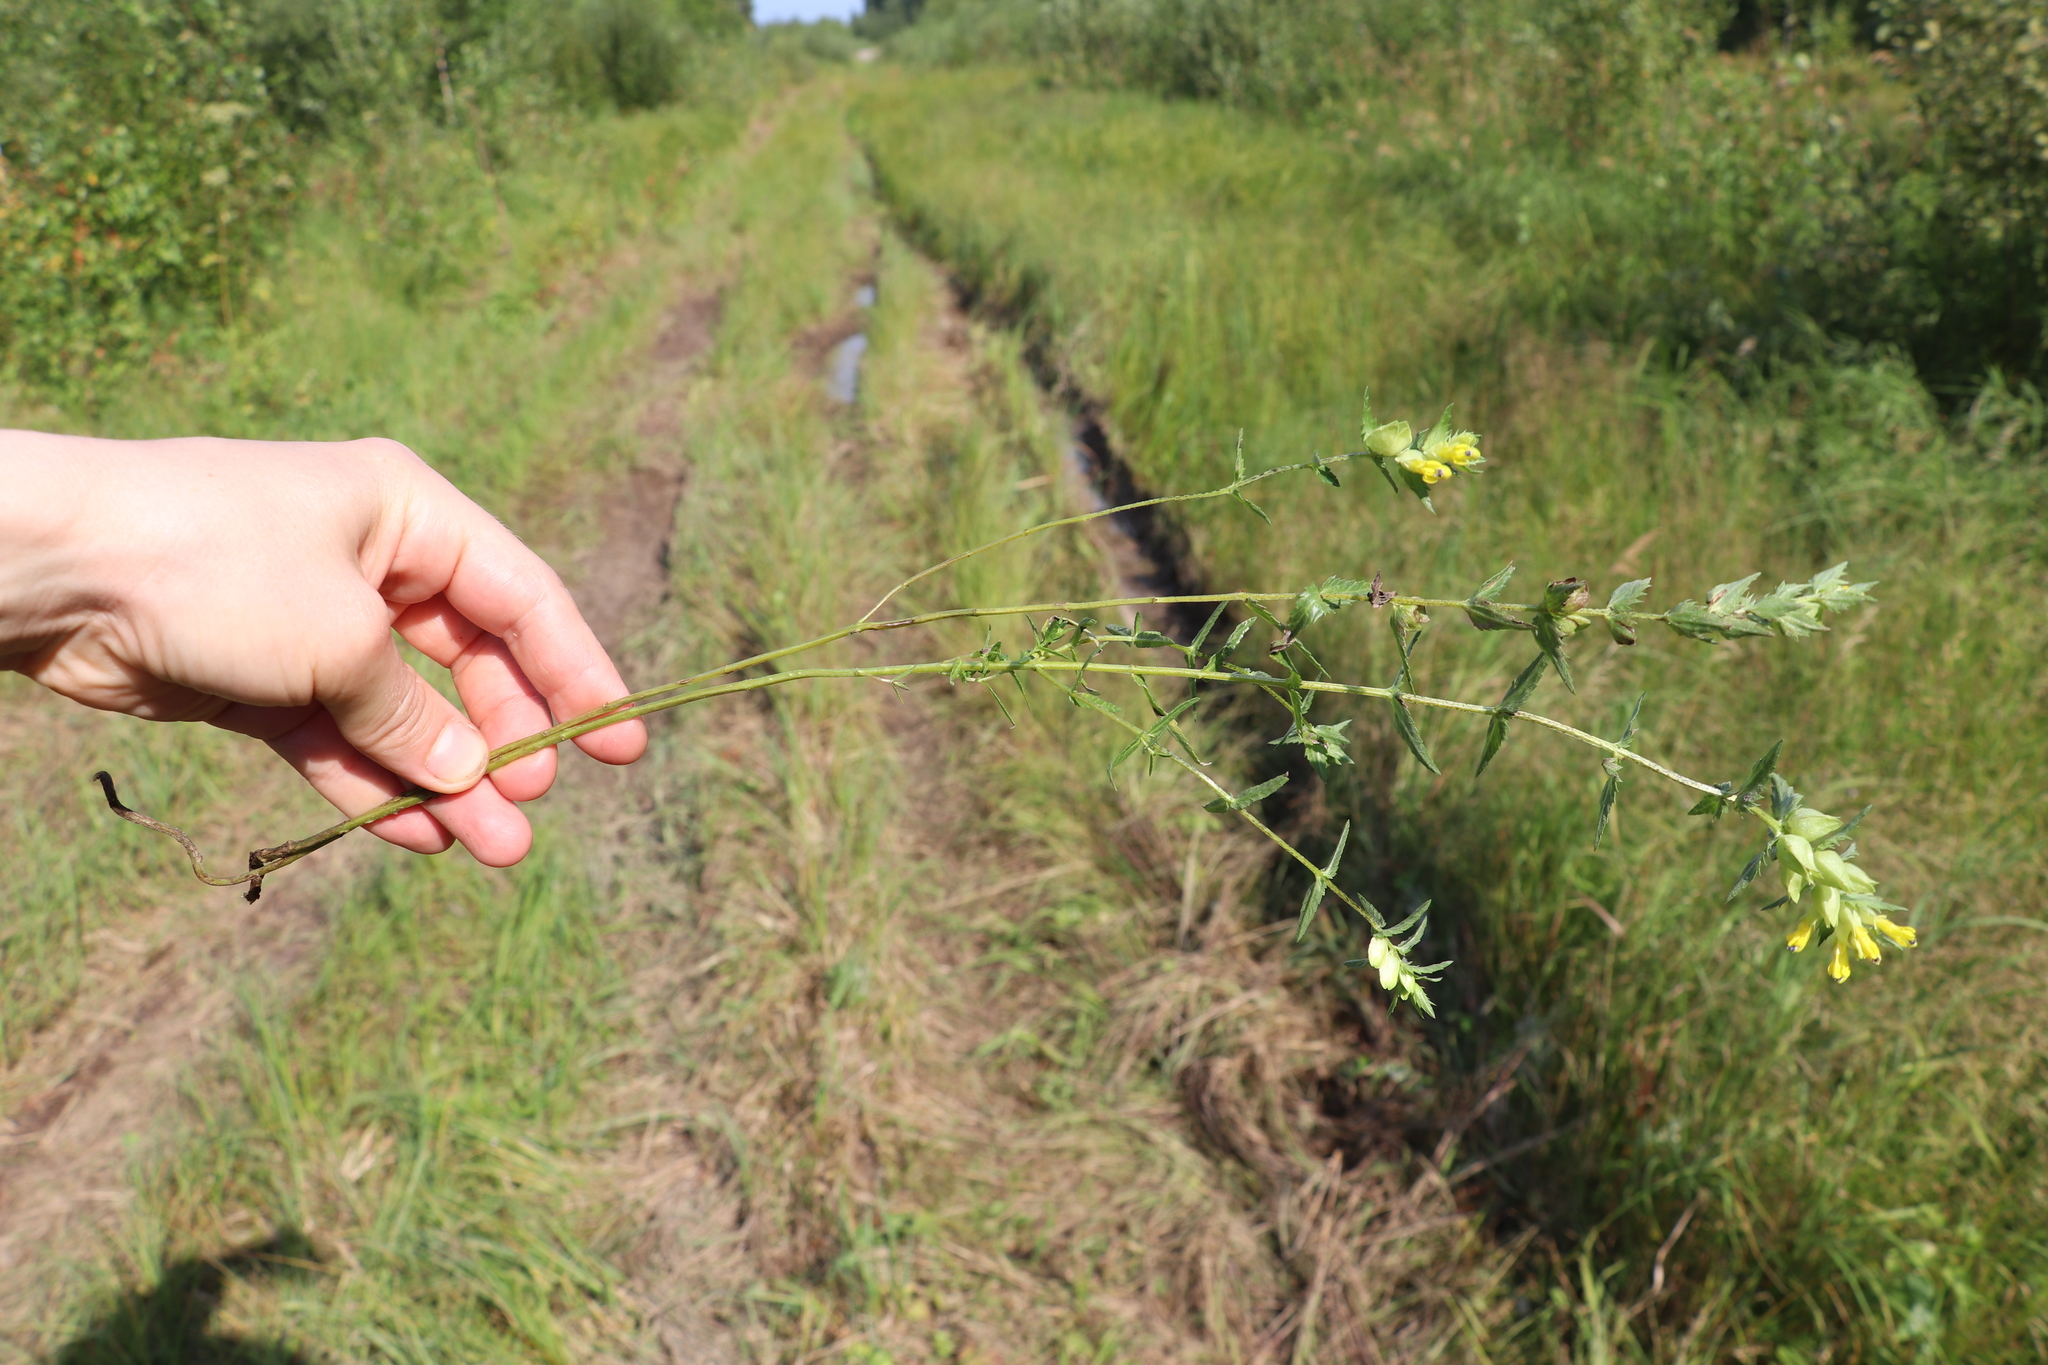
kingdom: Plantae
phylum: Tracheophyta
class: Magnoliopsida
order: Lamiales
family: Orobanchaceae
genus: Rhinanthus
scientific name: Rhinanthus serotinus
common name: Late-flowering yellow rattle
